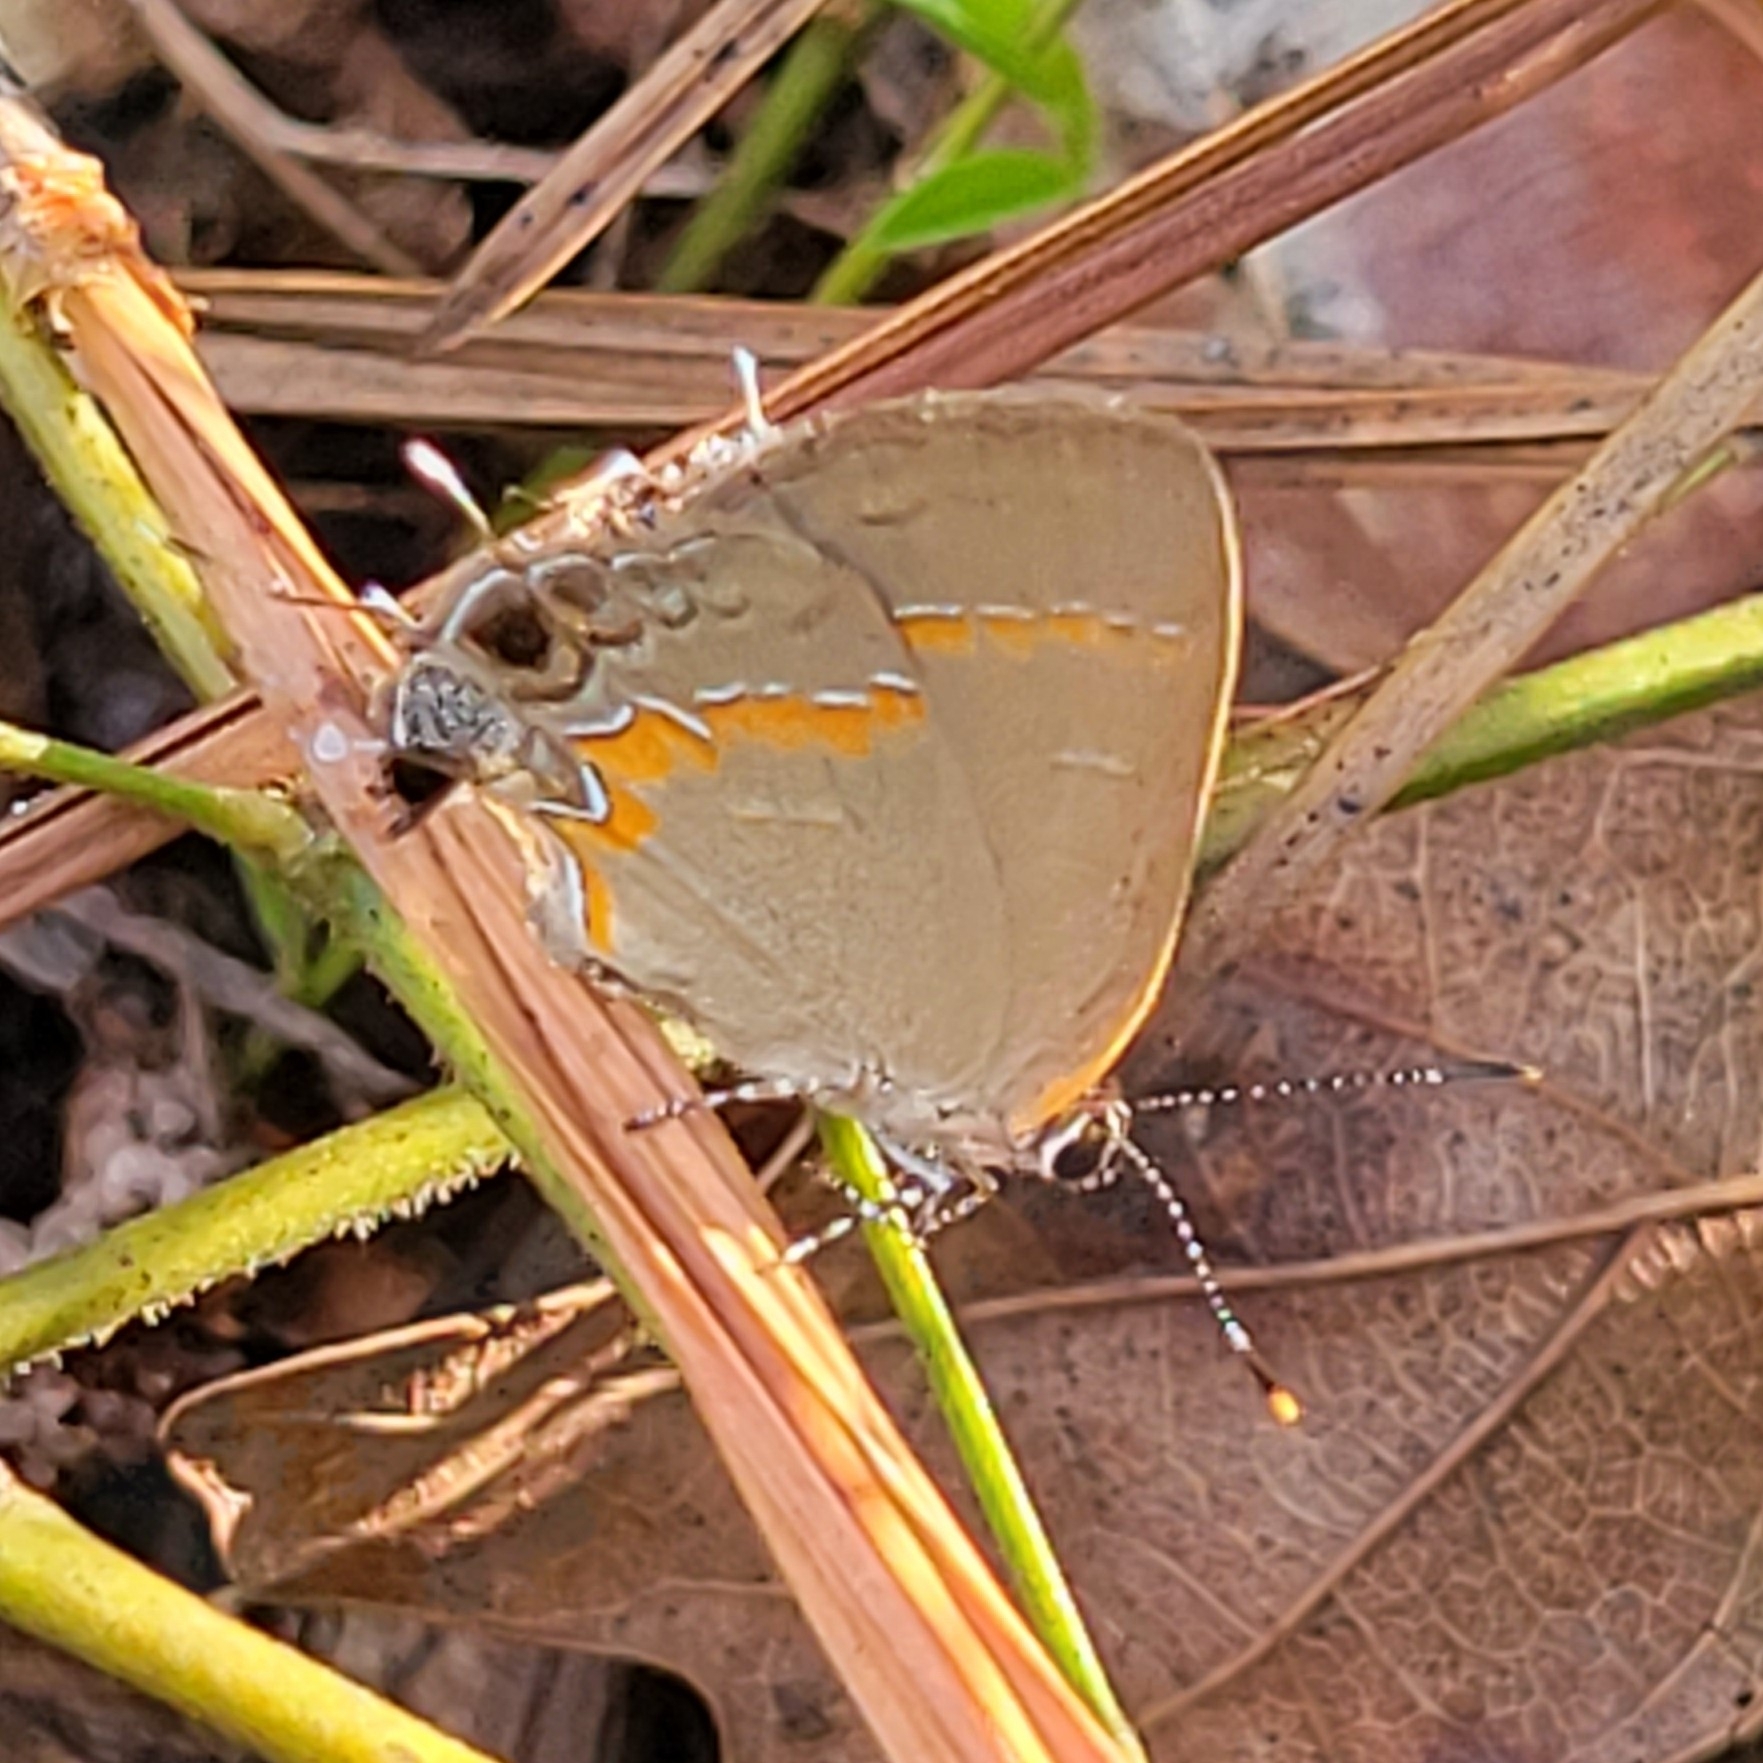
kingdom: Animalia
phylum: Arthropoda
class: Insecta
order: Lepidoptera
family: Lycaenidae
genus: Calycopis
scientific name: Calycopis cecrops
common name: Red-banded hairstreak
